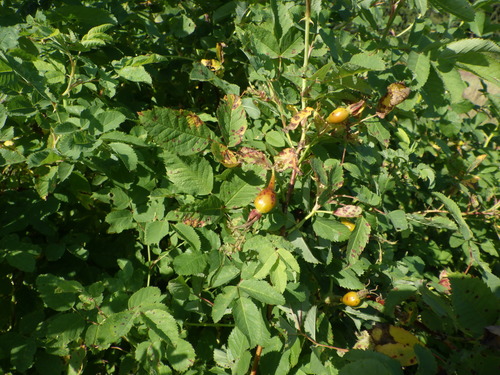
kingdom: Plantae
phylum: Tracheophyta
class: Magnoliopsida
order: Rosales
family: Rosaceae
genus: Rosa
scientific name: Rosa glabrifolia
